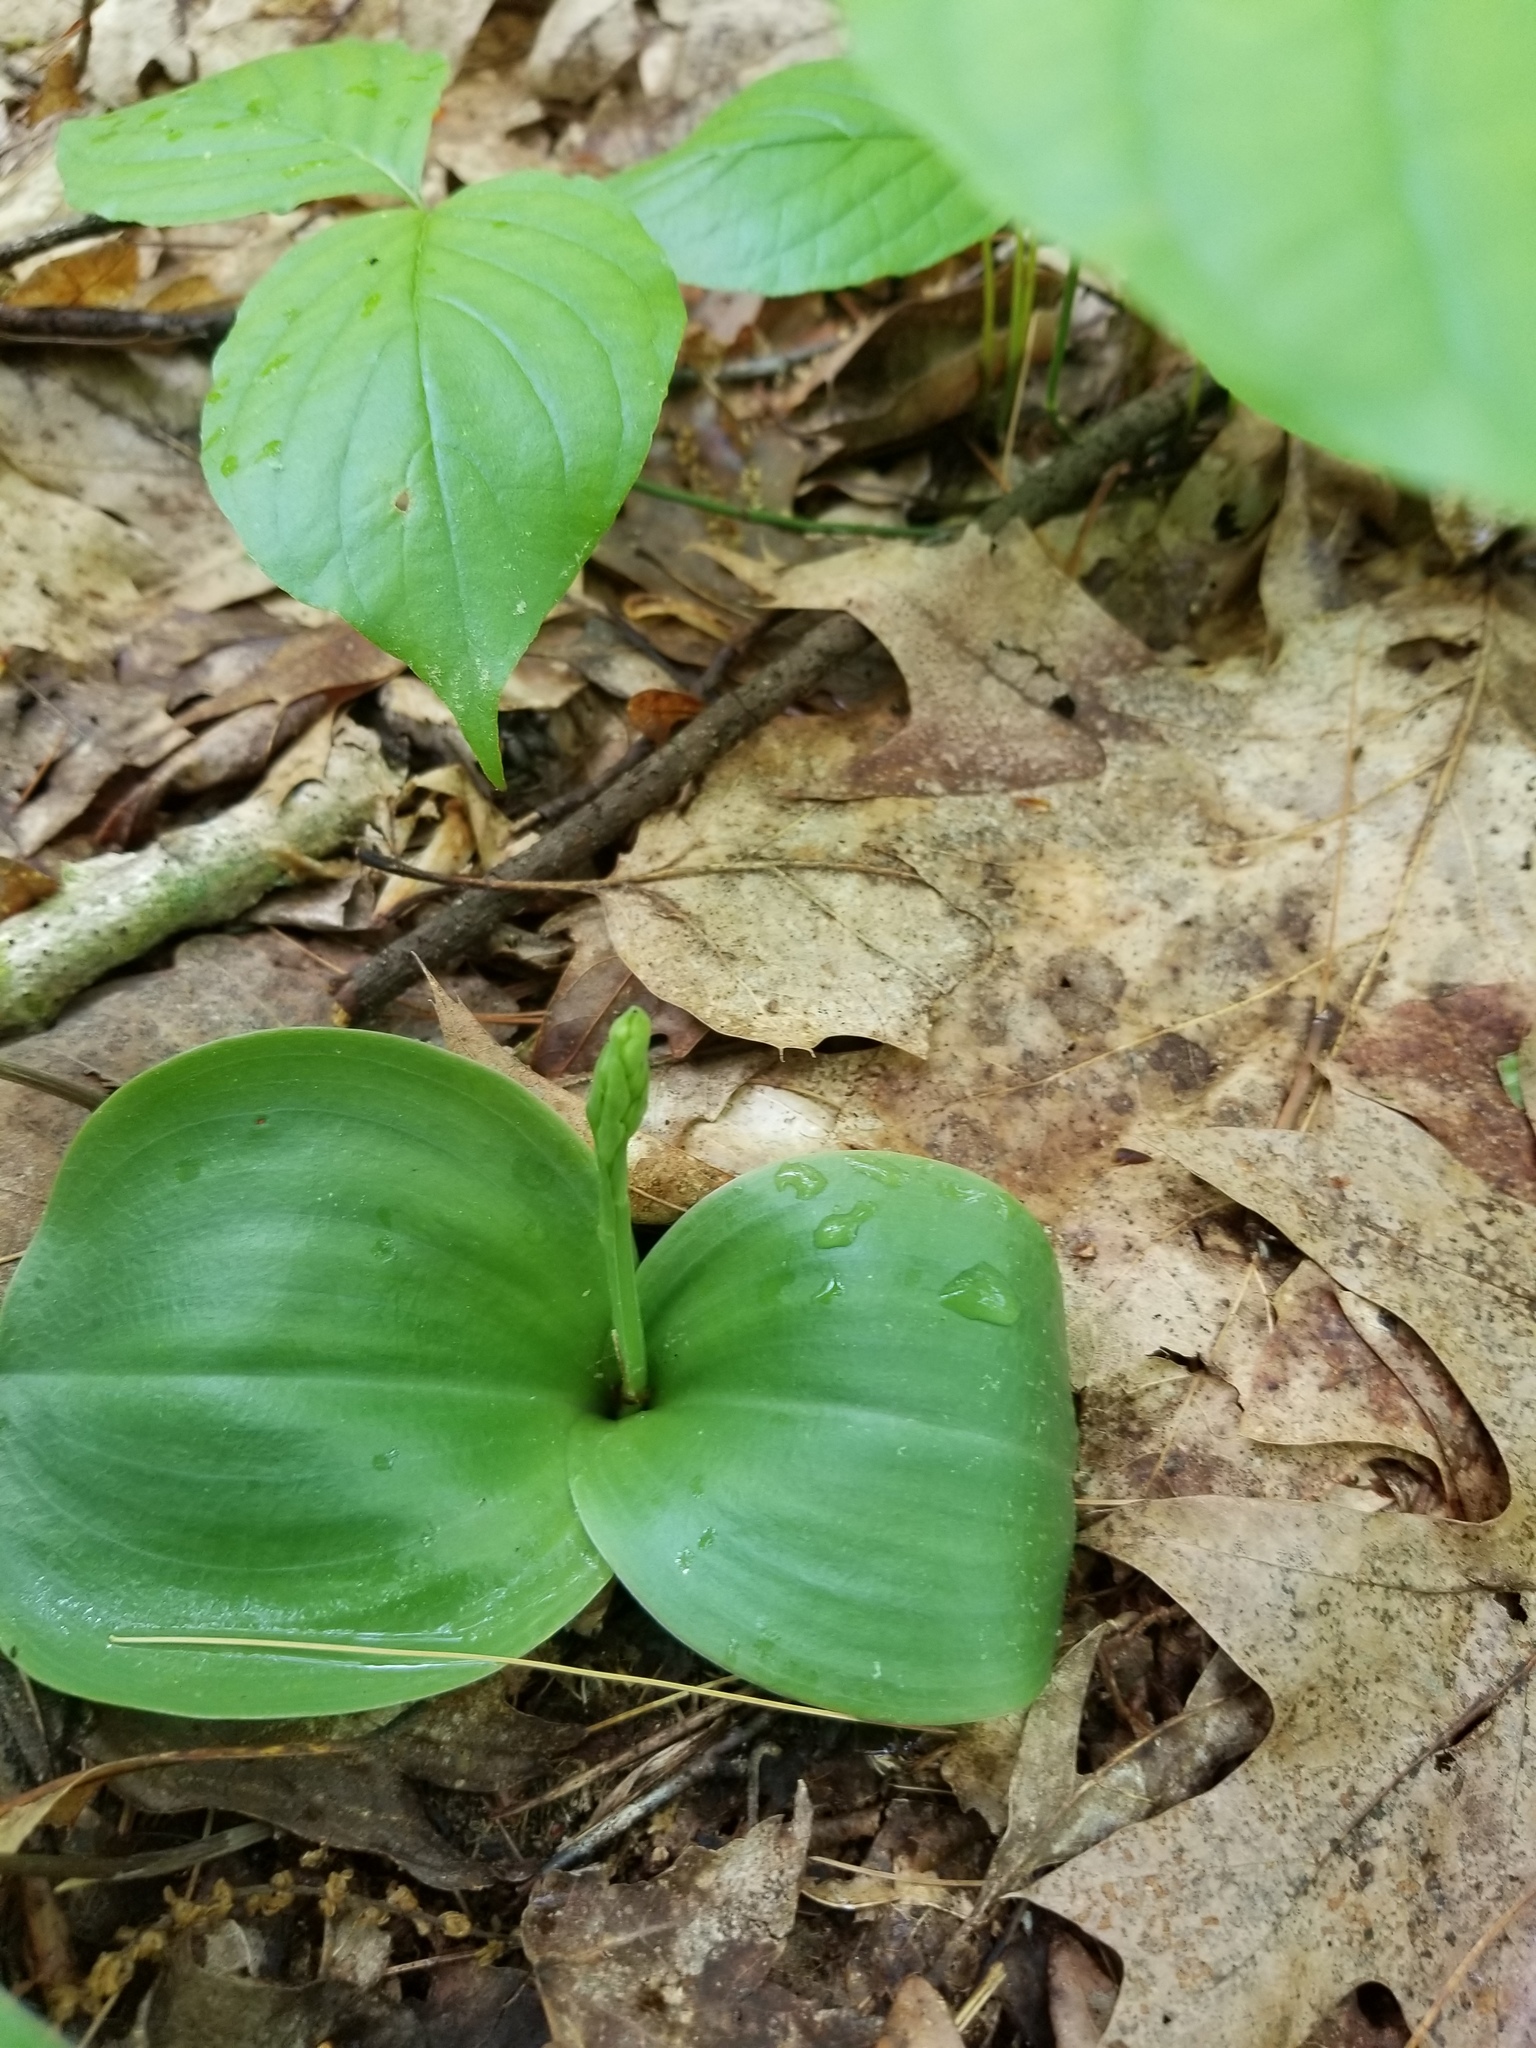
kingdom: Plantae
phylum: Tracheophyta
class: Liliopsida
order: Asparagales
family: Orchidaceae
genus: Platanthera
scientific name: Platanthera orbiculata
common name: Large round-leaved orchid
